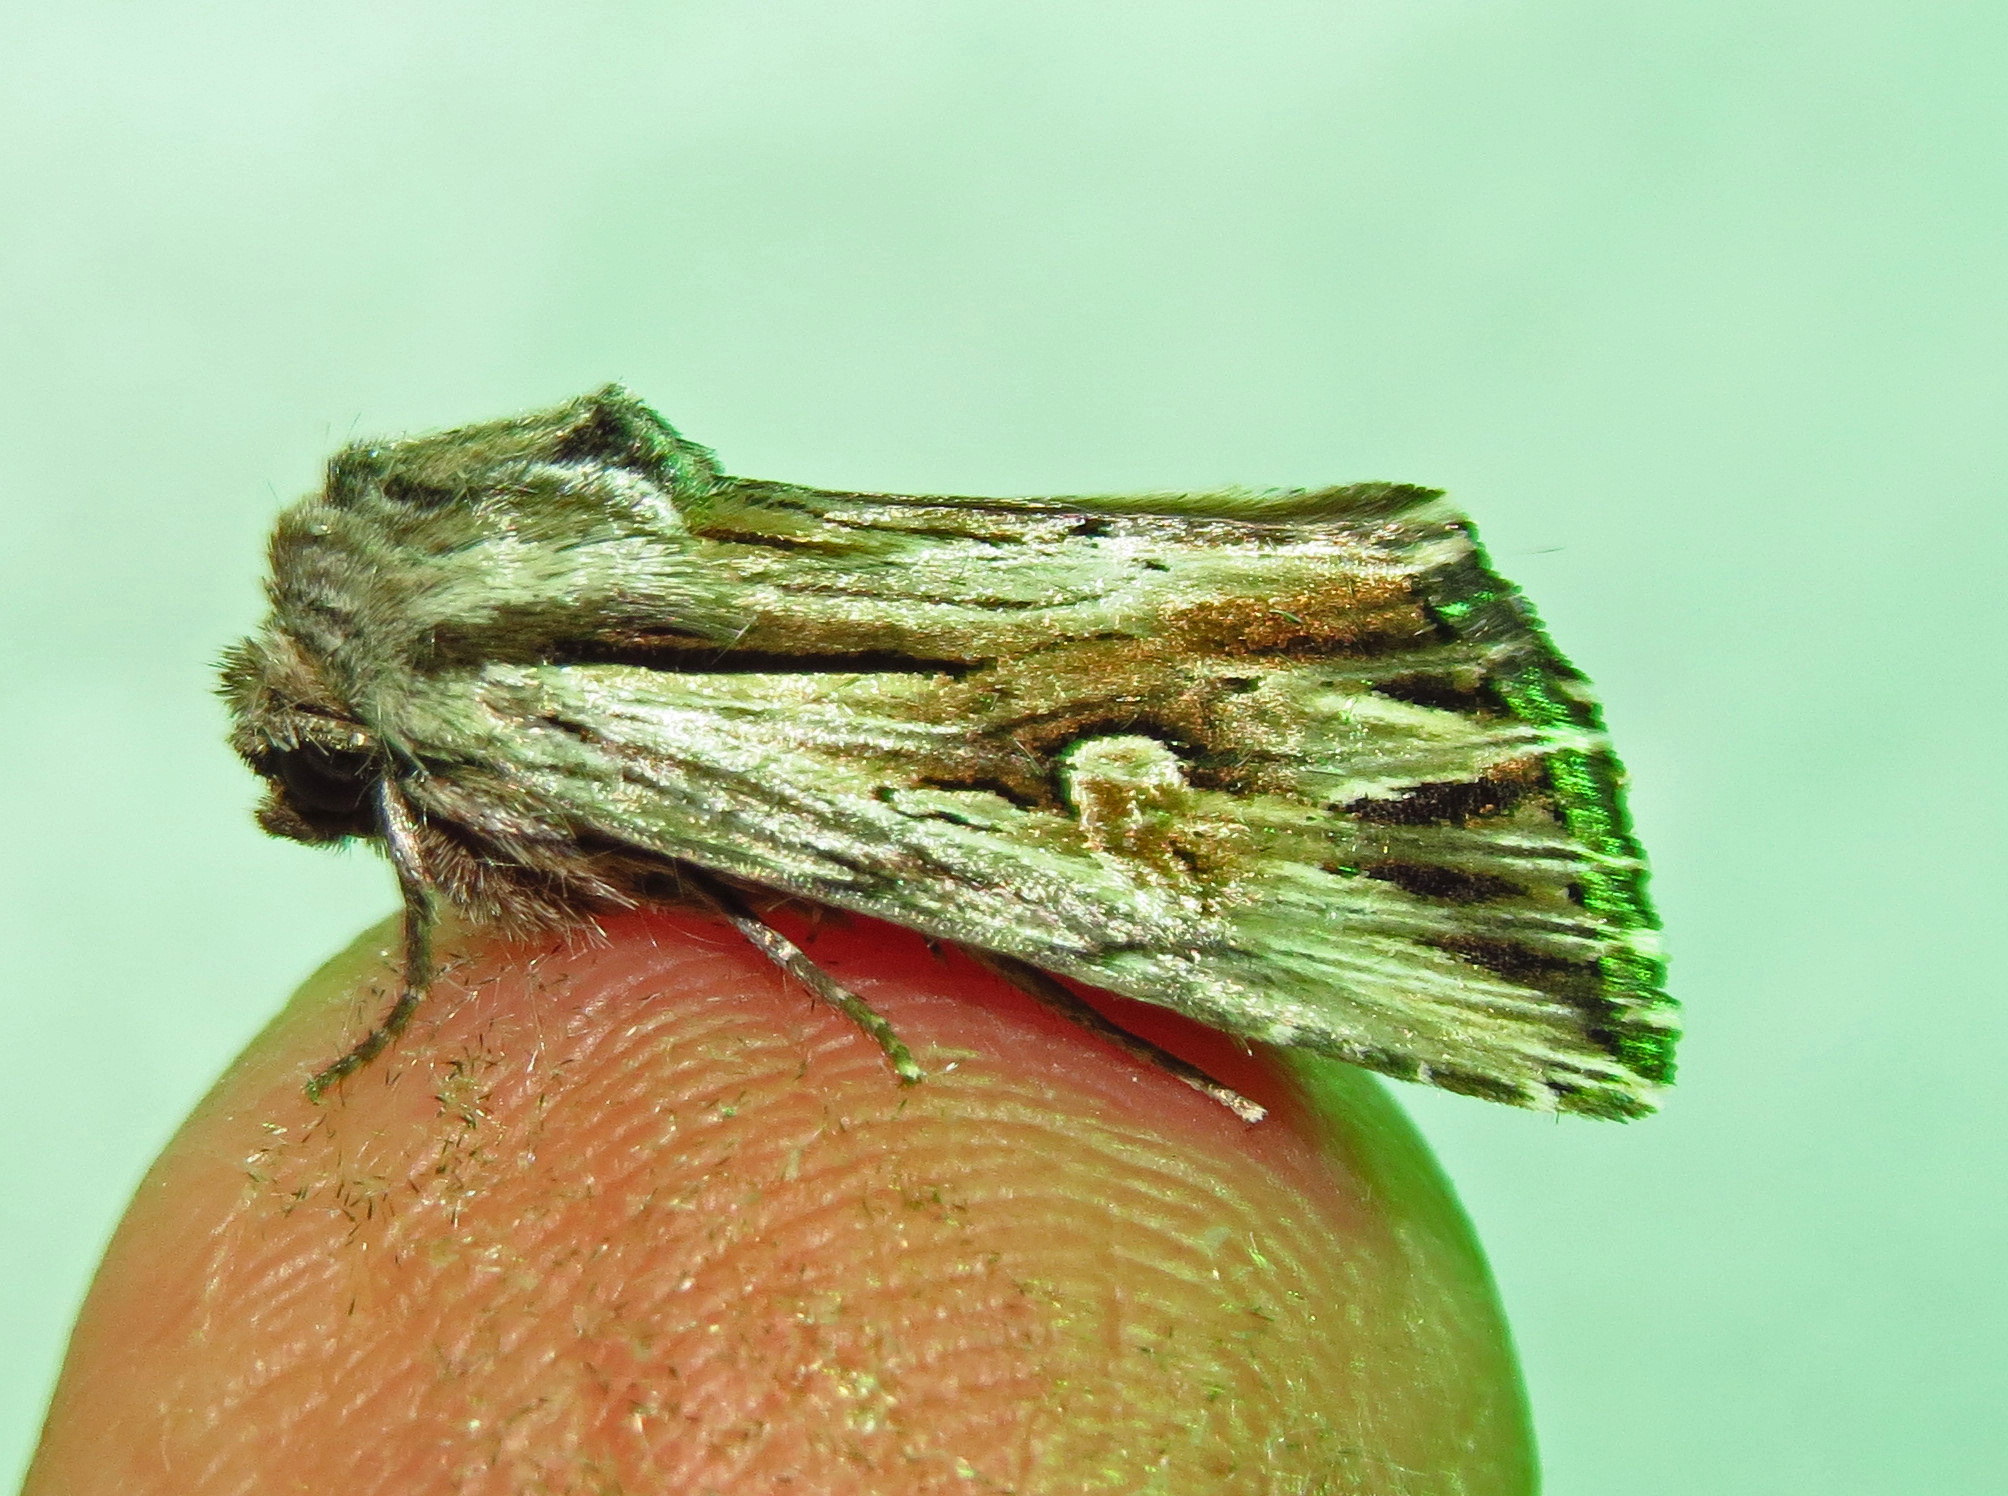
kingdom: Animalia
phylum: Arthropoda
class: Insecta
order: Lepidoptera
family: Noctuidae
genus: Nedra
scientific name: Nedra ramosula
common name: Gray half-spot
